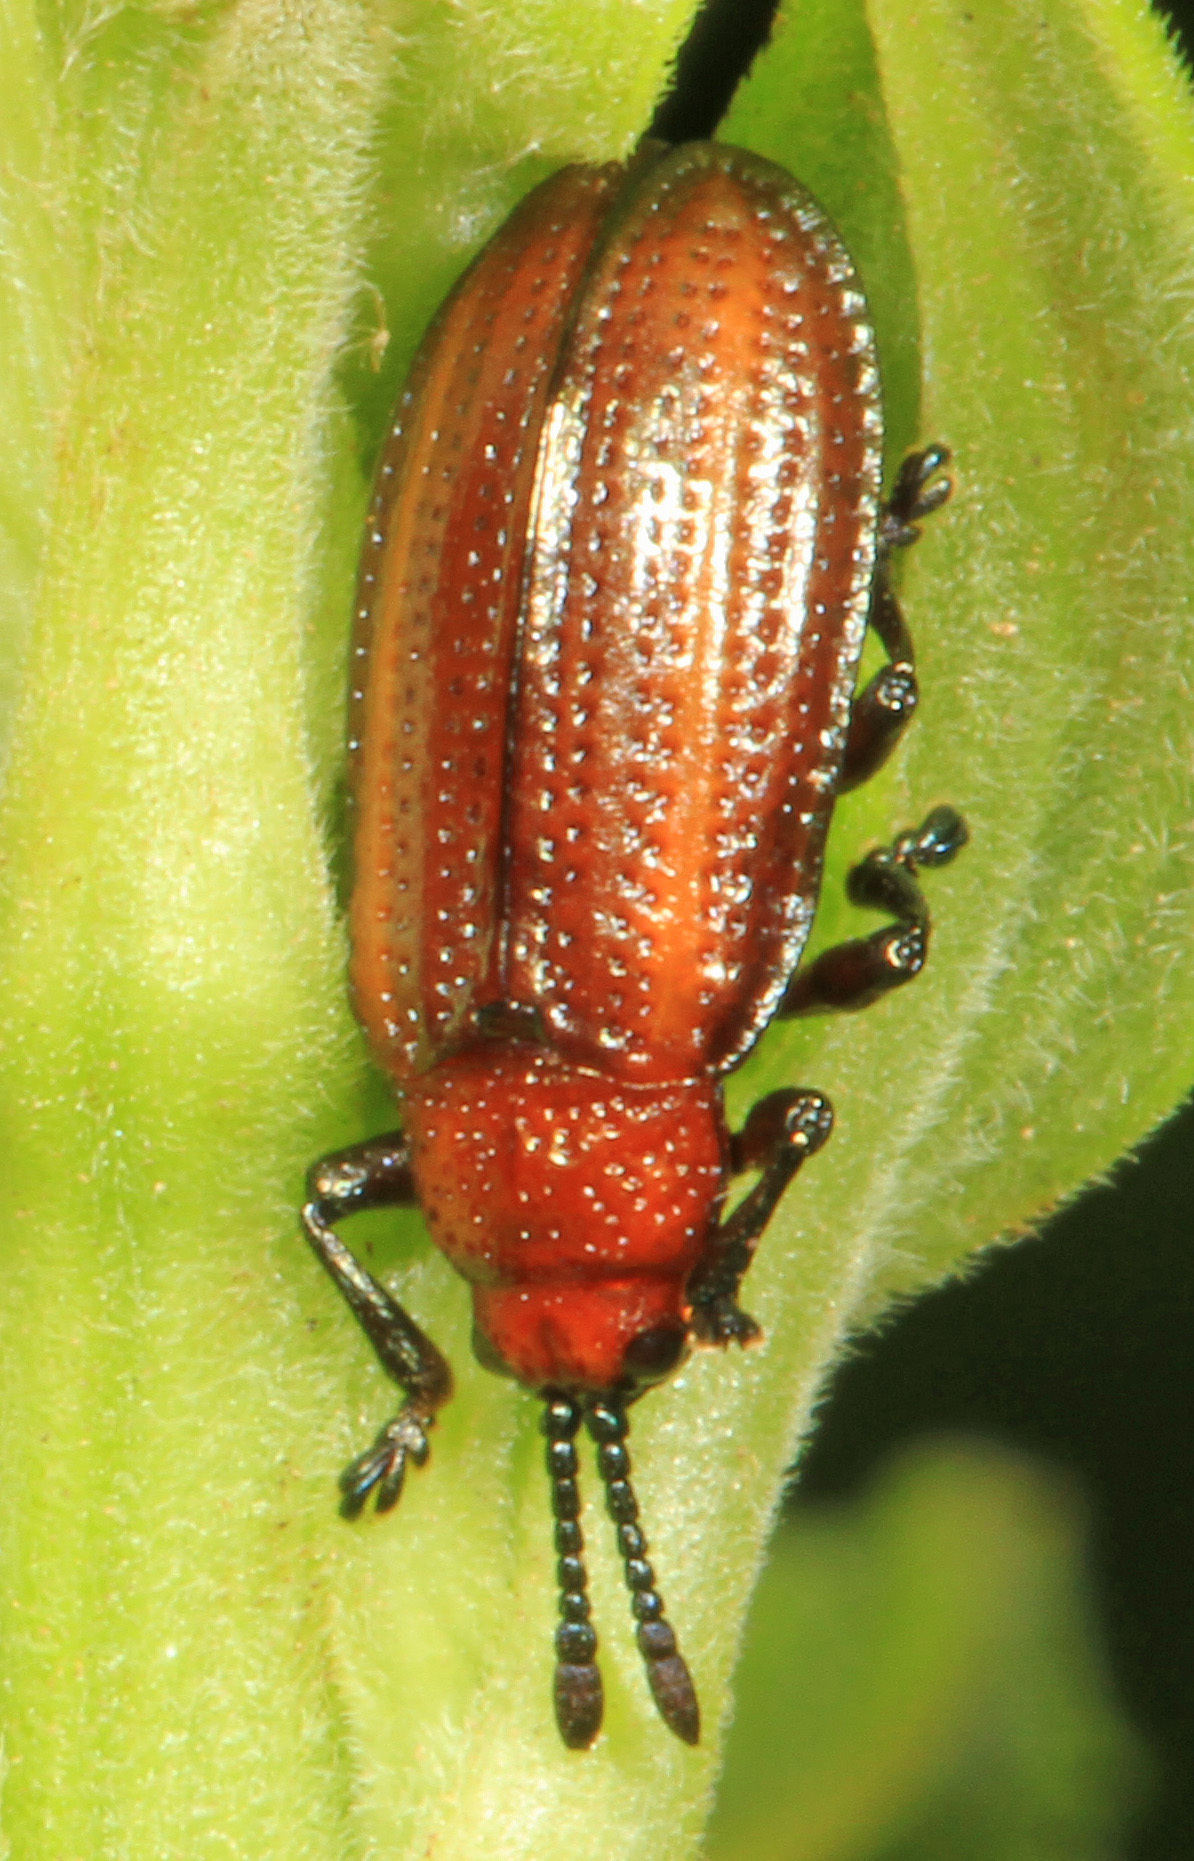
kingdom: Animalia
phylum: Arthropoda
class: Insecta
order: Coleoptera
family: Chrysomelidae
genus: Microrhopala
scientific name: Microrhopala vittata
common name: Goldenrod leaf miner beetle
